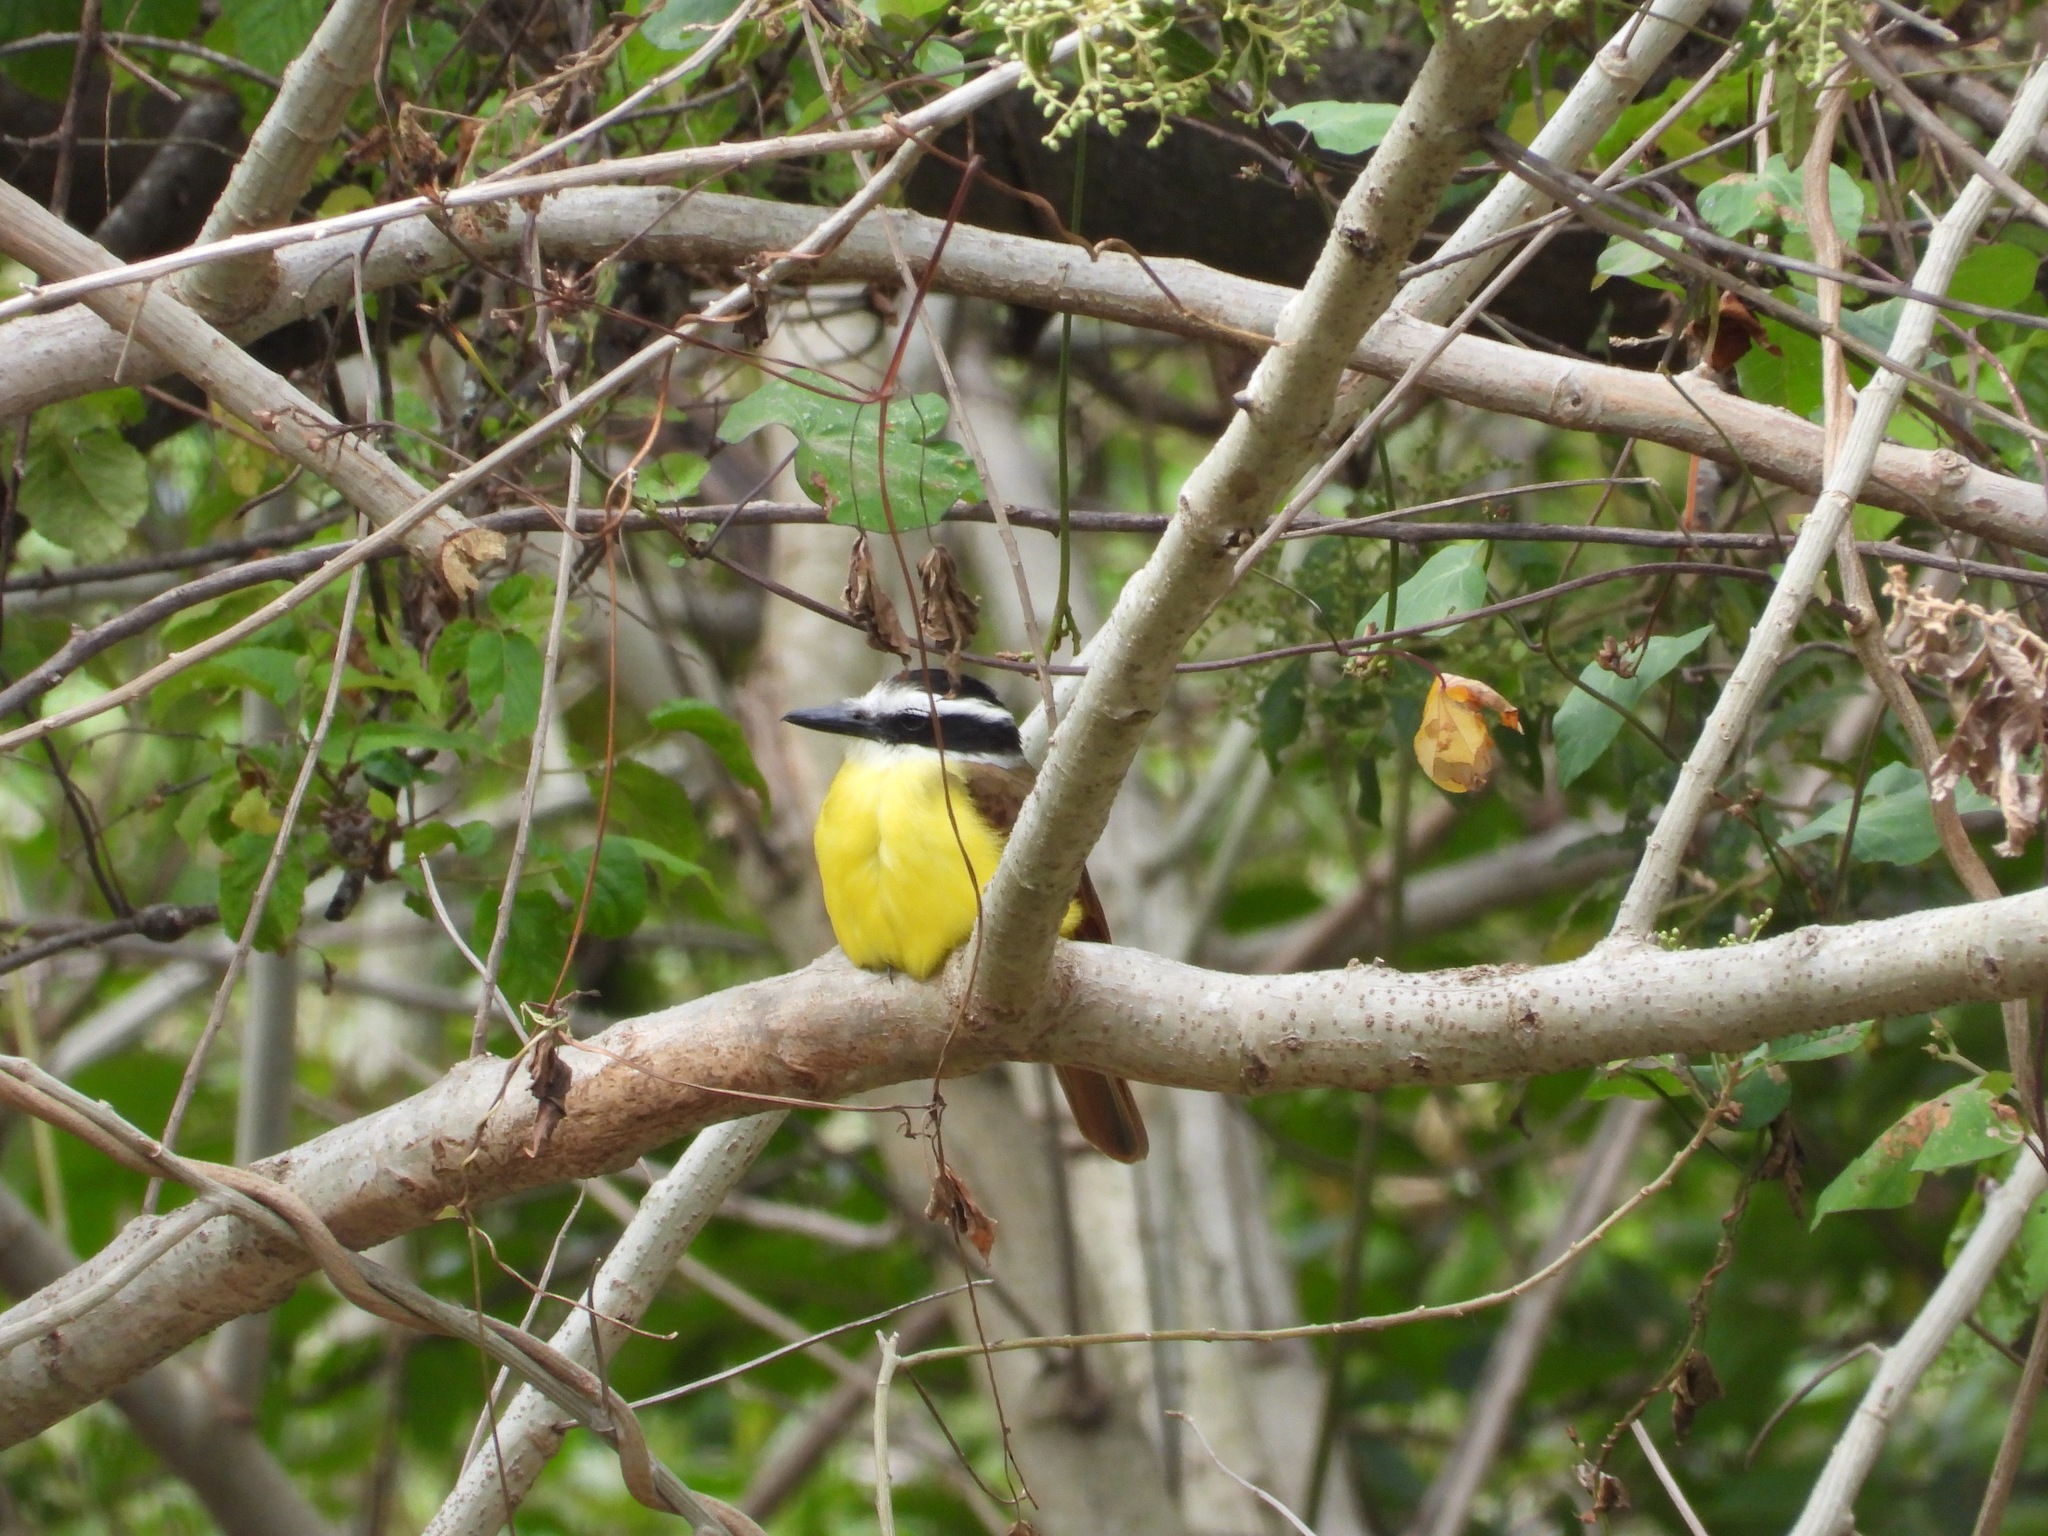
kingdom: Animalia
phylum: Chordata
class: Aves
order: Passeriformes
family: Tyrannidae
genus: Pitangus
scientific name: Pitangus sulphuratus
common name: Great kiskadee
